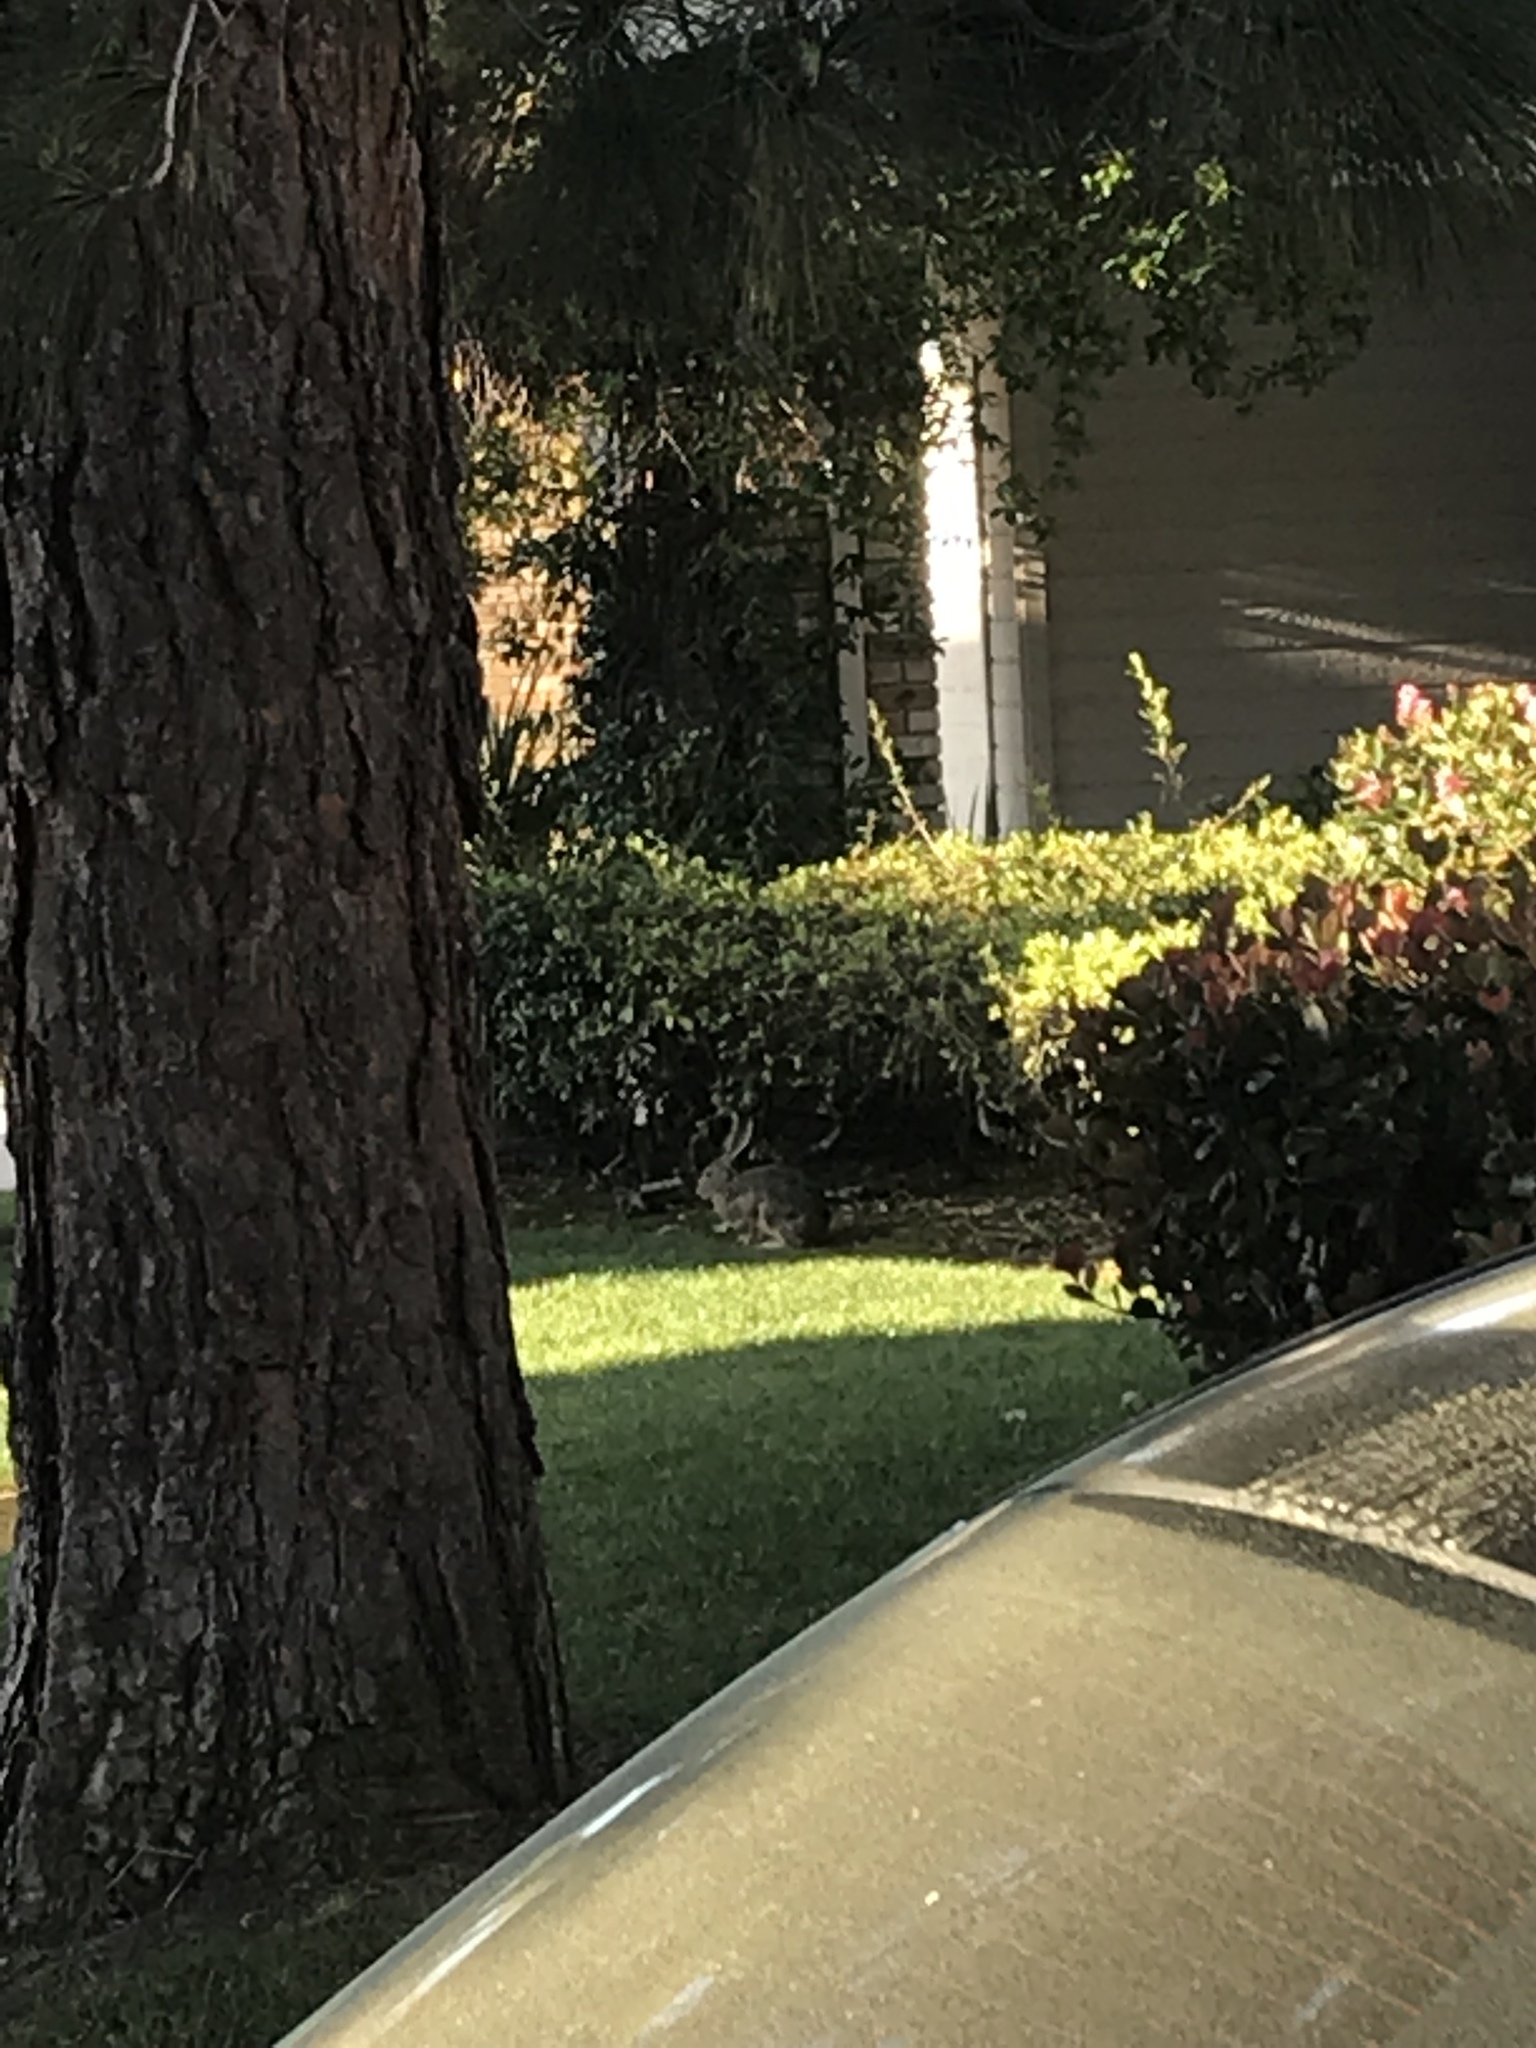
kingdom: Animalia
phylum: Chordata
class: Mammalia
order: Lagomorpha
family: Leporidae
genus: Lepus
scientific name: Lepus californicus
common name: Black-tailed jackrabbit
